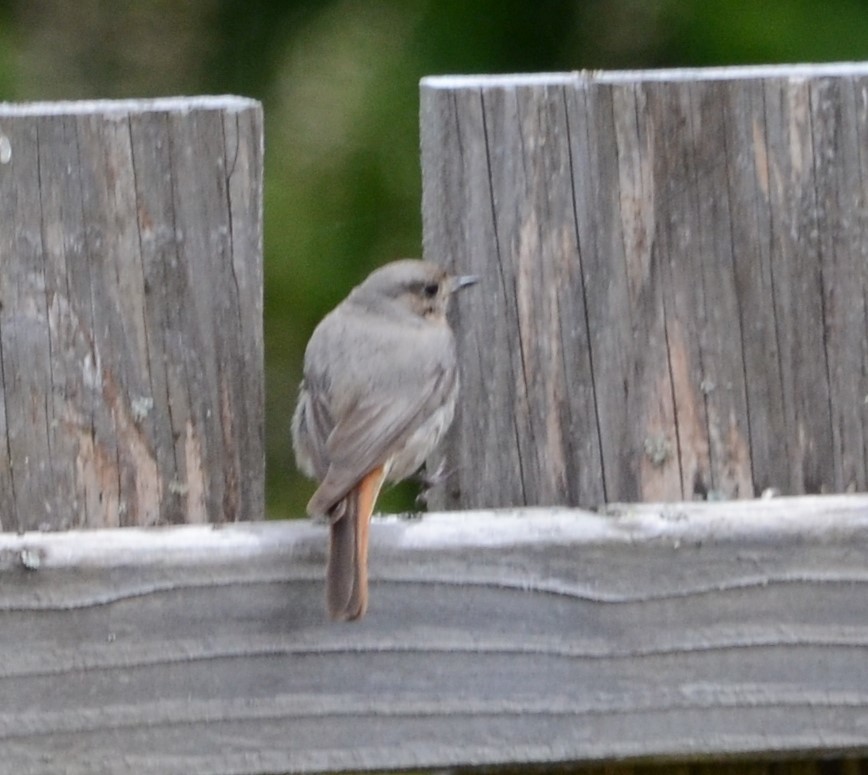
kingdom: Animalia
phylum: Chordata
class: Aves
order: Passeriformes
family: Muscicapidae
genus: Phoenicurus
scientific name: Phoenicurus ochruros
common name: Black redstart
